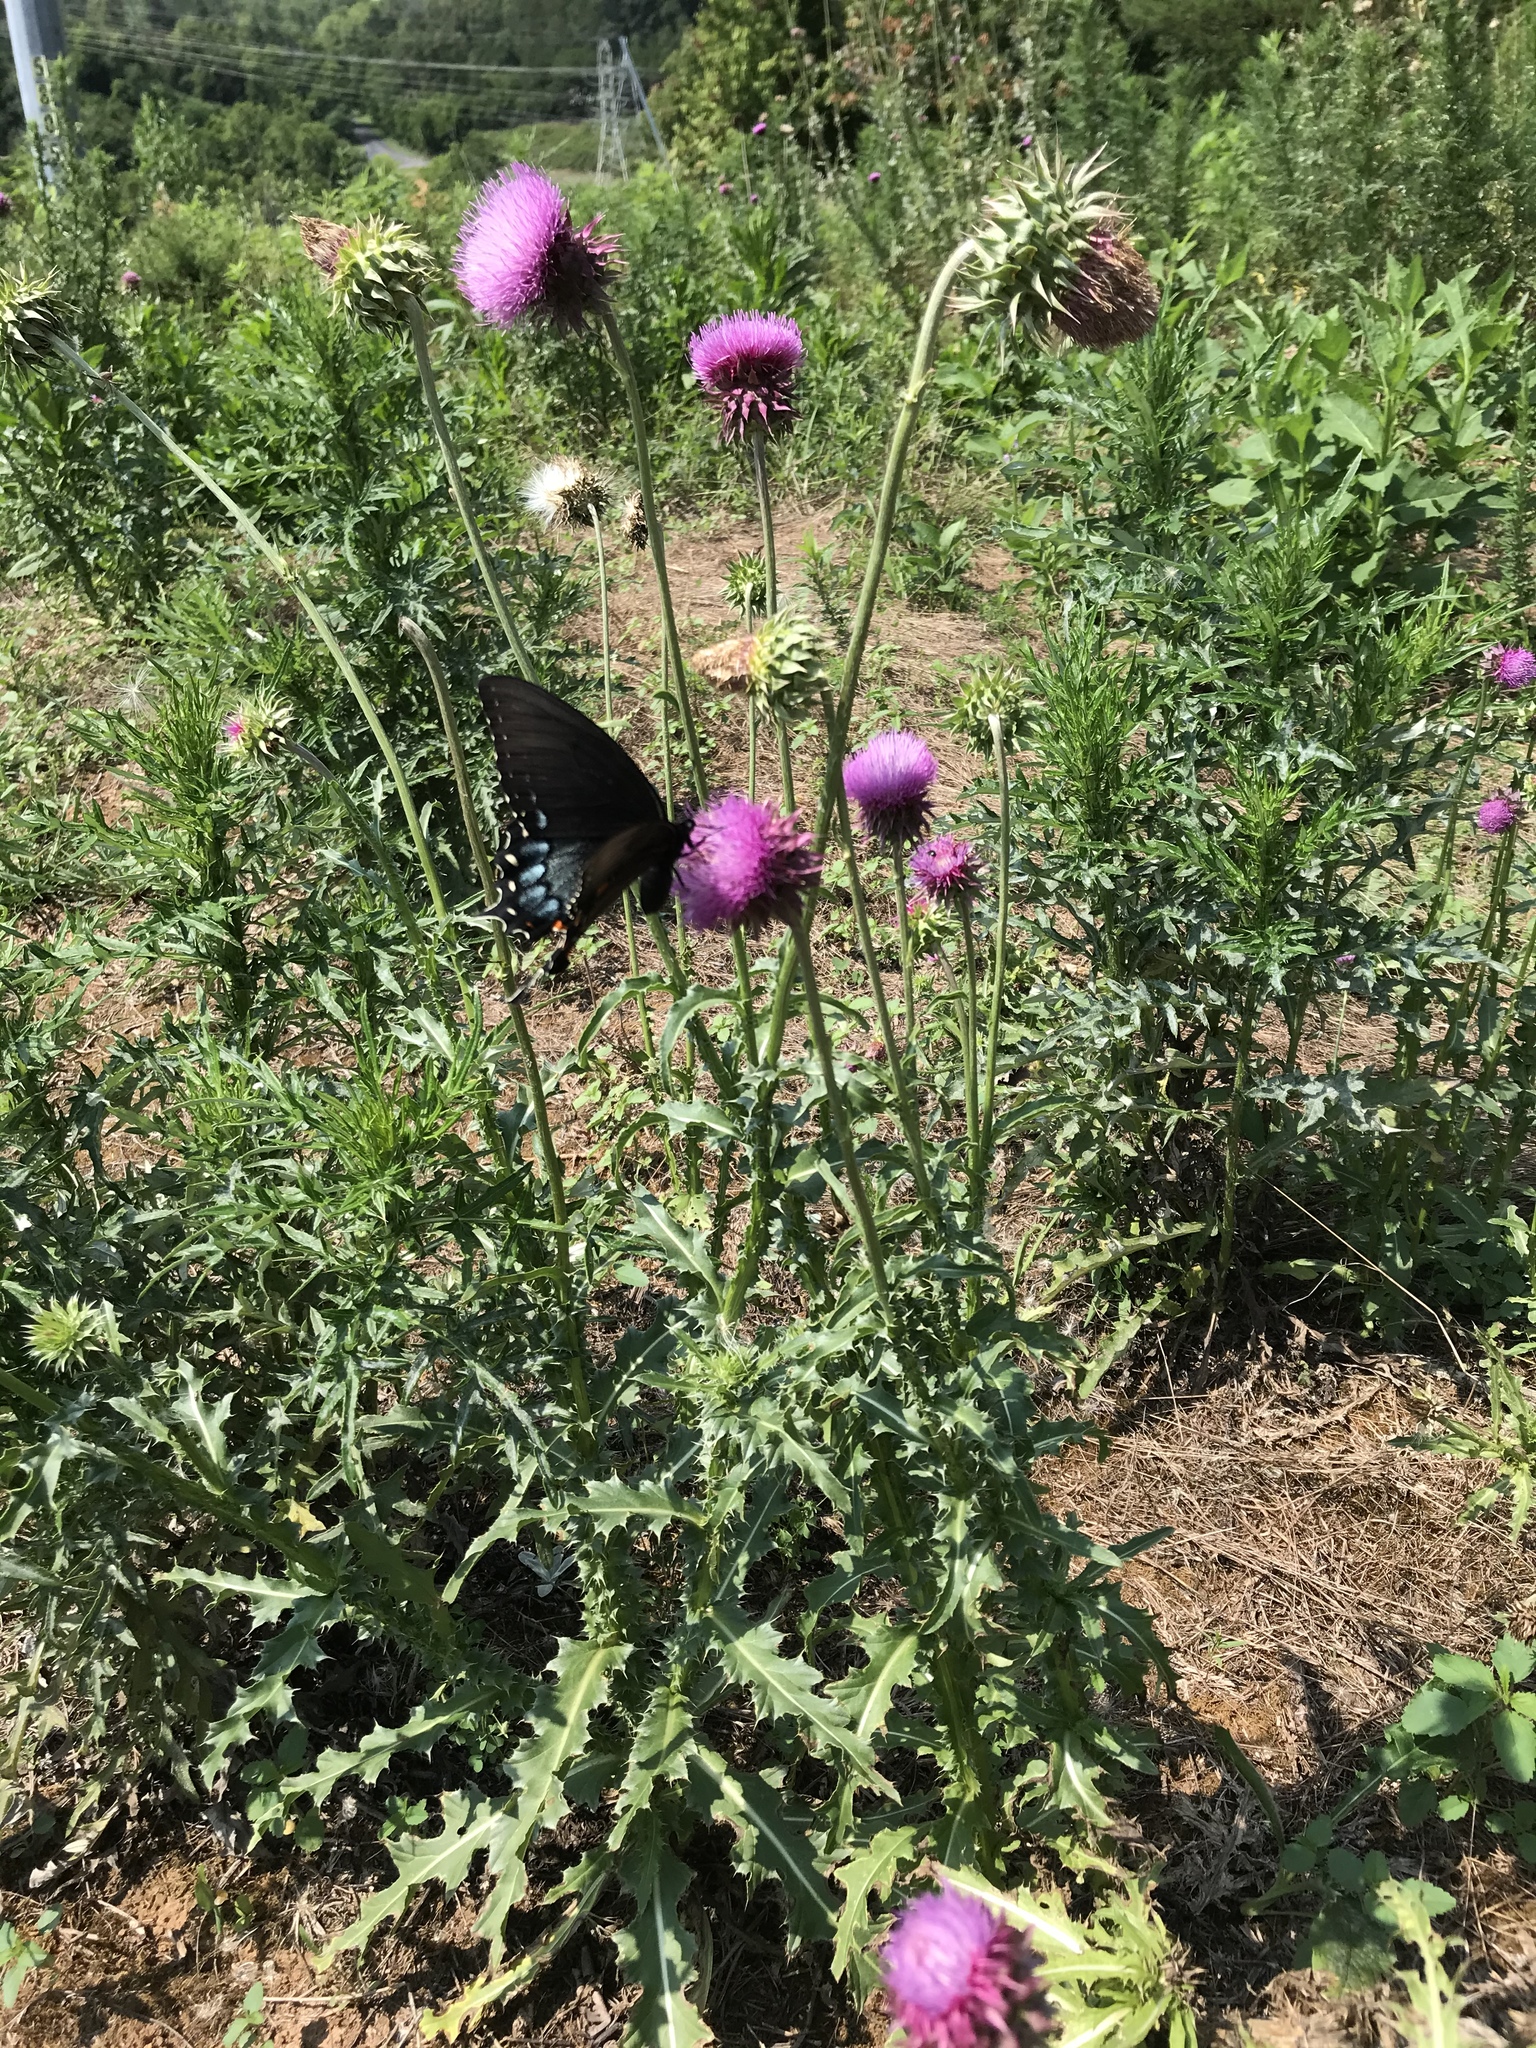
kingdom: Plantae
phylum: Tracheophyta
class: Magnoliopsida
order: Asterales
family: Asteraceae
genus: Carduus
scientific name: Carduus nutans
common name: Musk thistle
